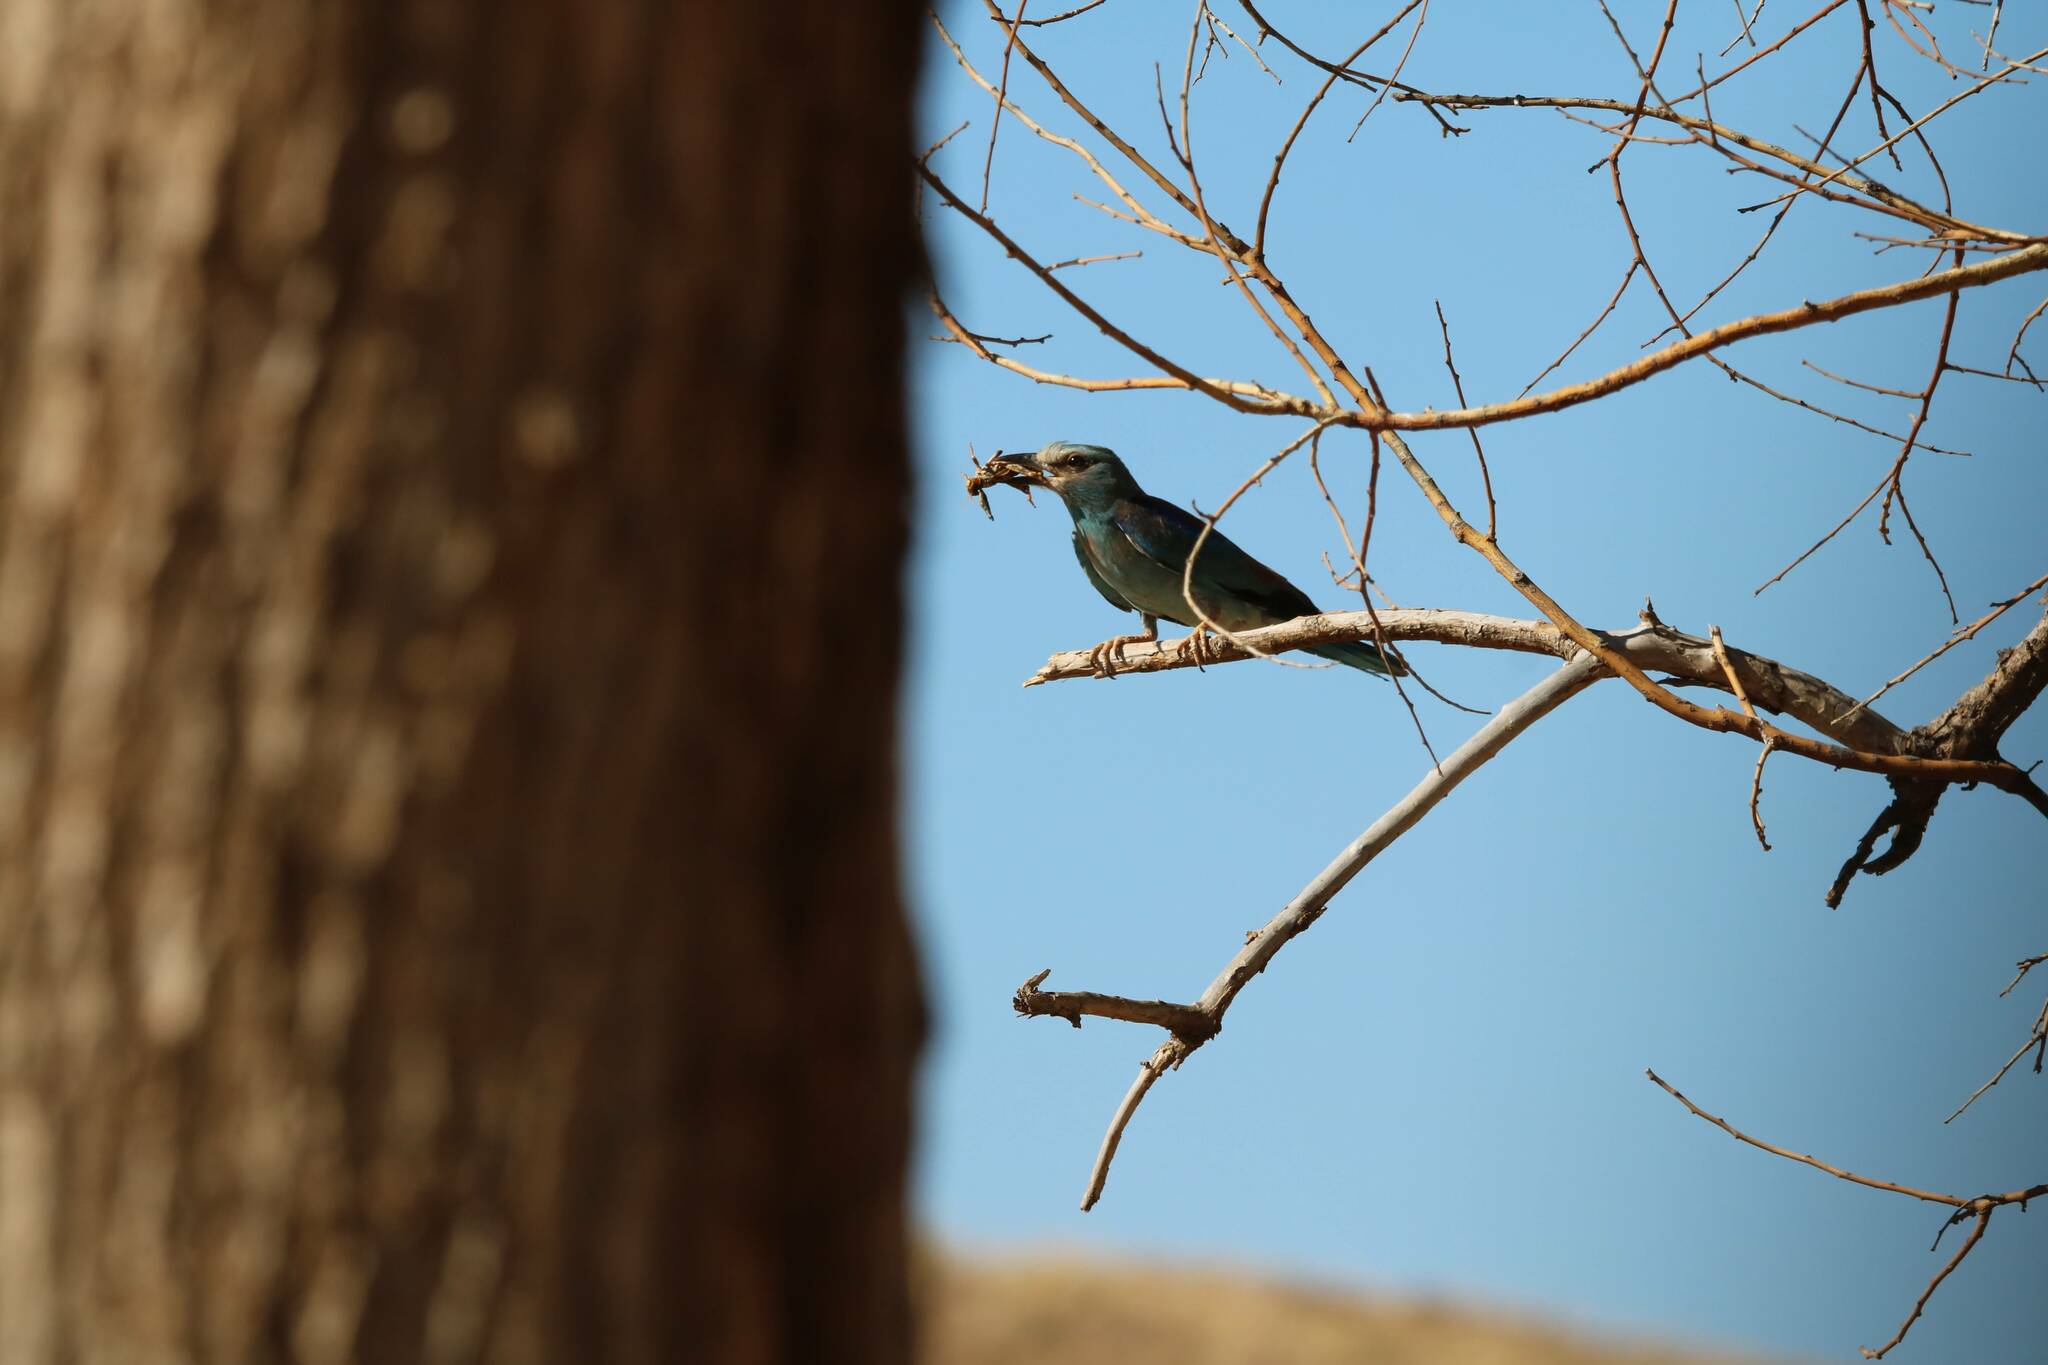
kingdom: Animalia
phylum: Chordata
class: Aves
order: Coraciiformes
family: Coraciidae
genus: Coracias
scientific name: Coracias garrulus
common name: European roller
